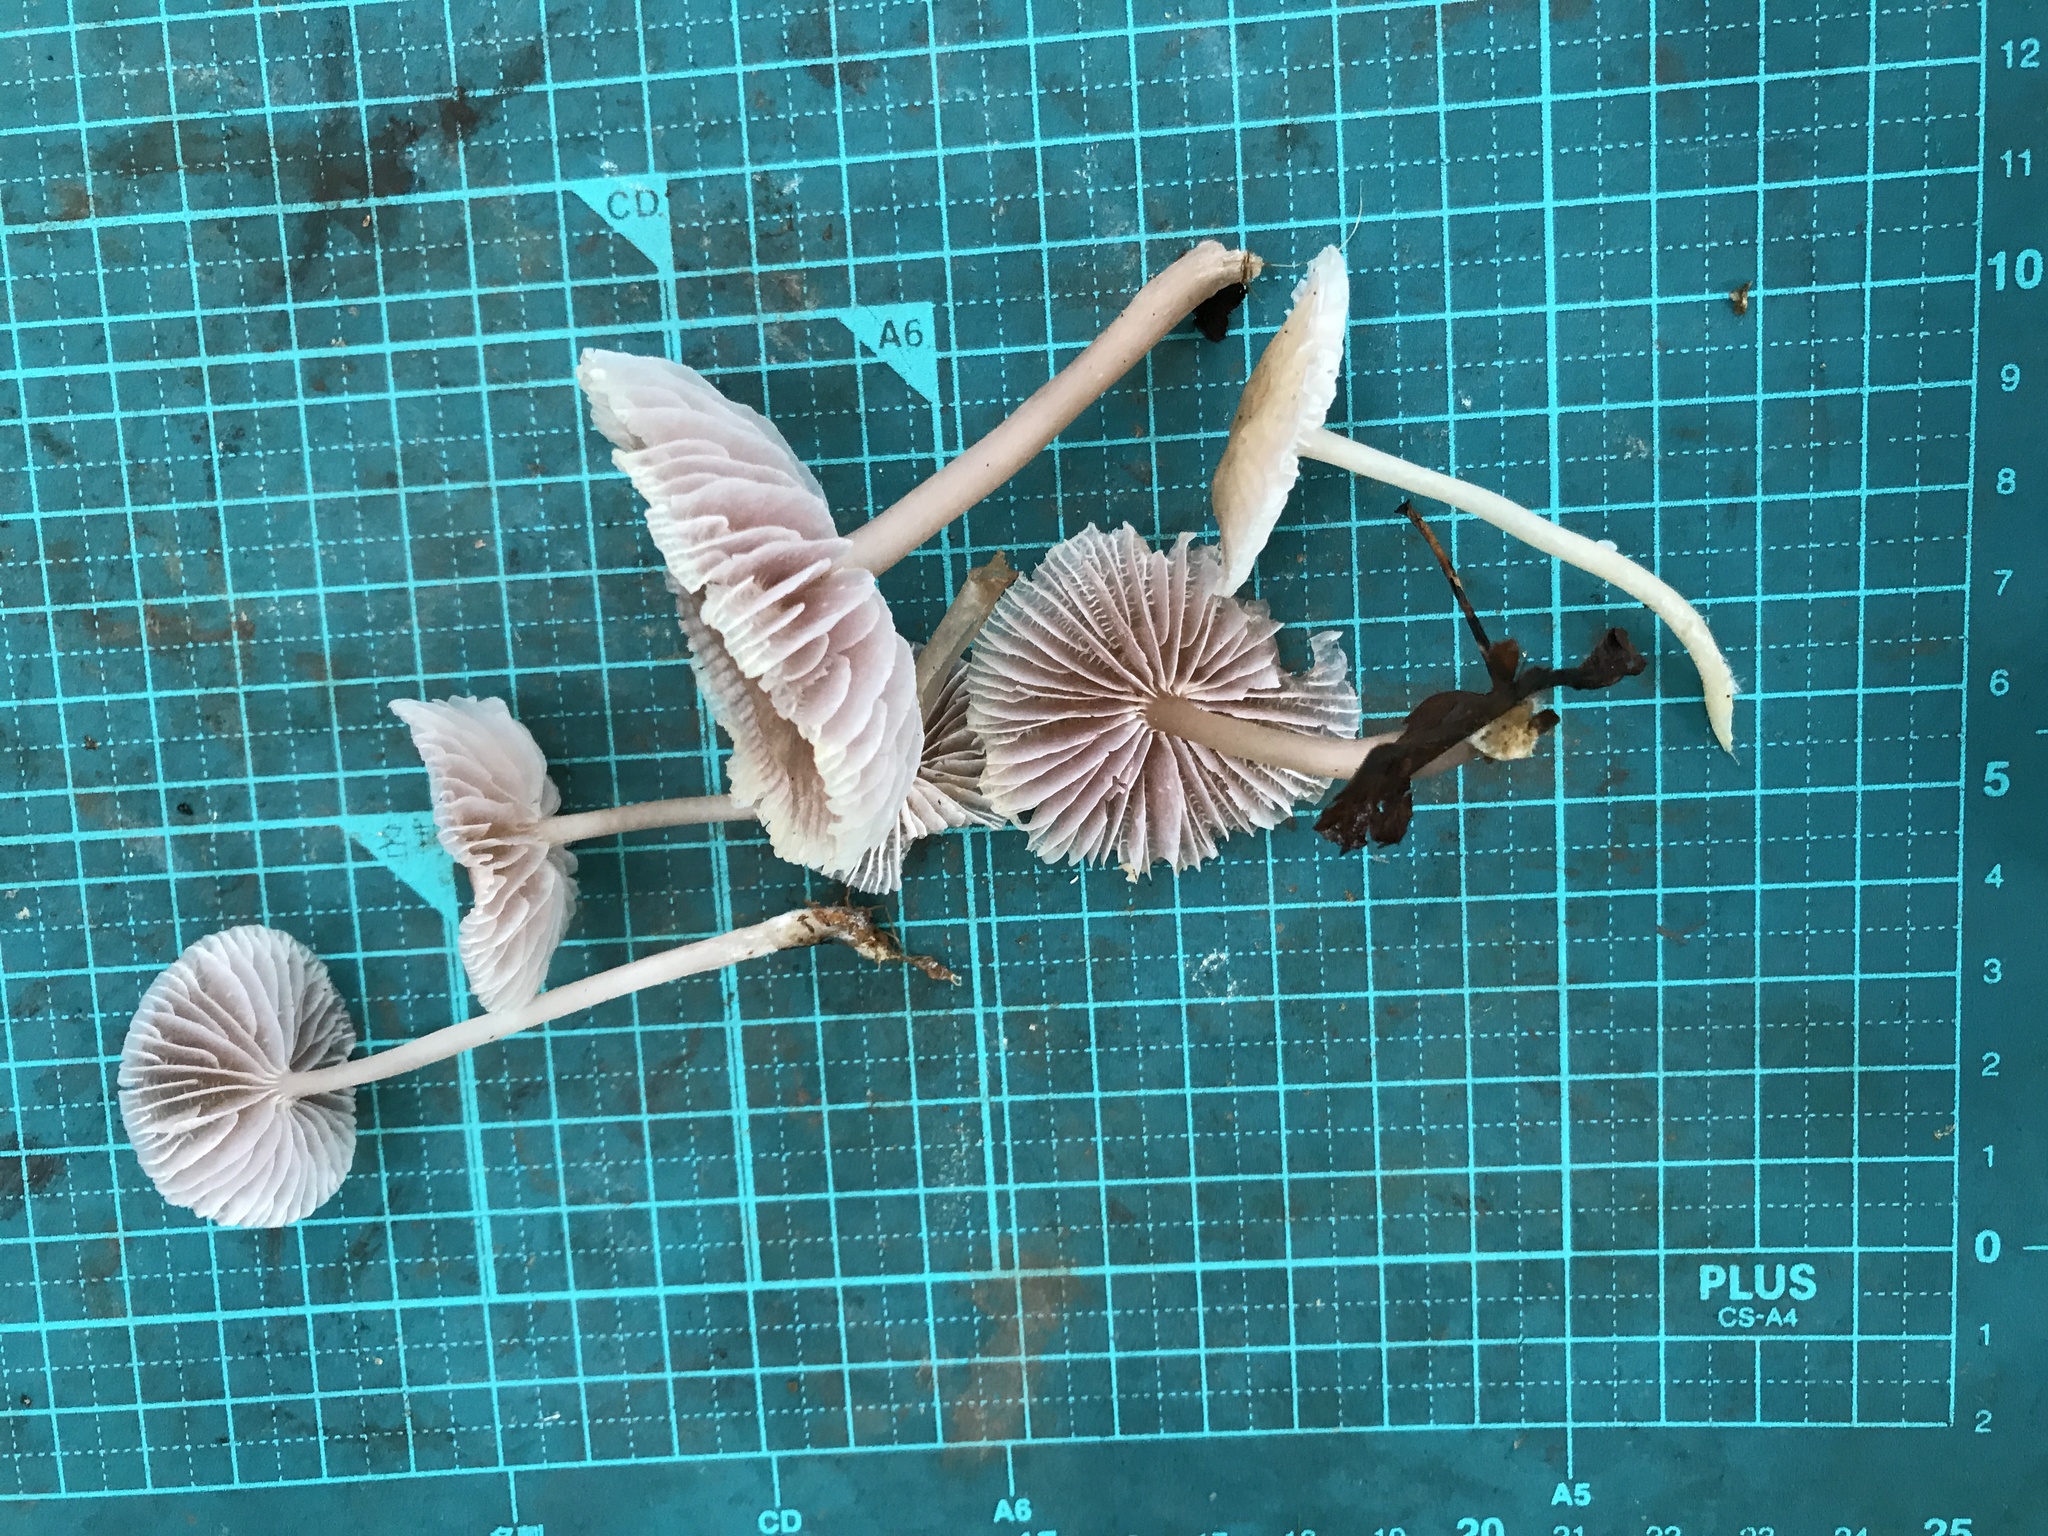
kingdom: Fungi
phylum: Basidiomycota
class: Agaricomycetes
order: Agaricales
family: Mycenaceae
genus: Mycena
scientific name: Mycena pura
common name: Lilac bonnet
